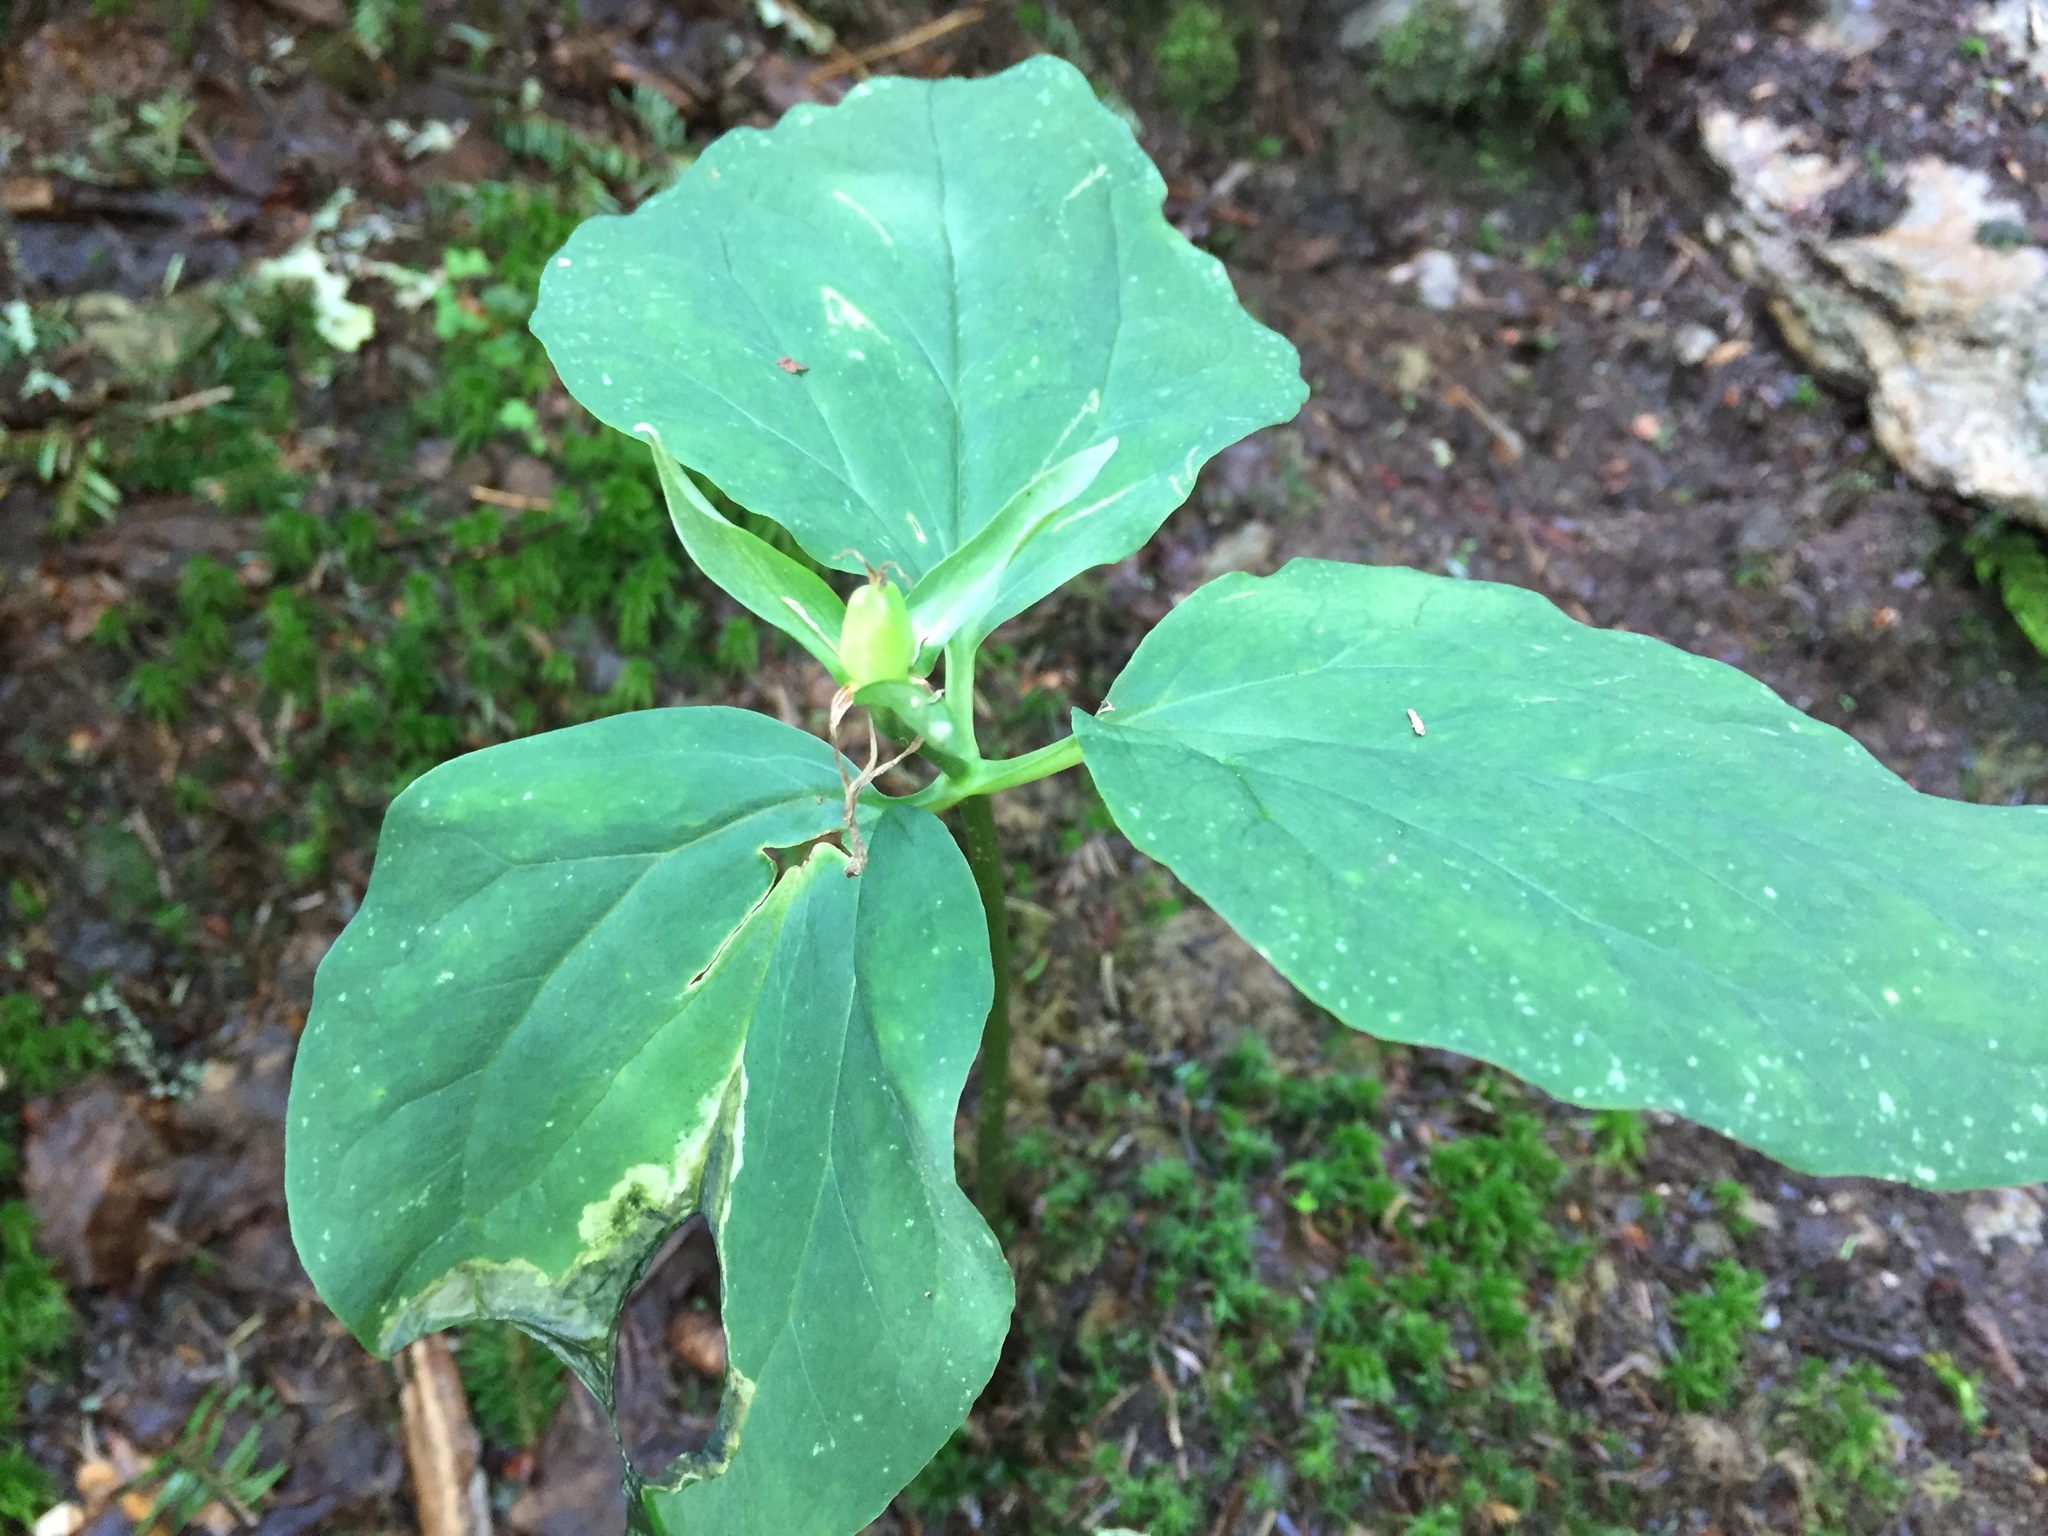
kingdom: Plantae
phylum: Tracheophyta
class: Liliopsida
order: Liliales
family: Melanthiaceae
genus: Trillium
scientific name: Trillium undulatum
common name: Paint trillium
